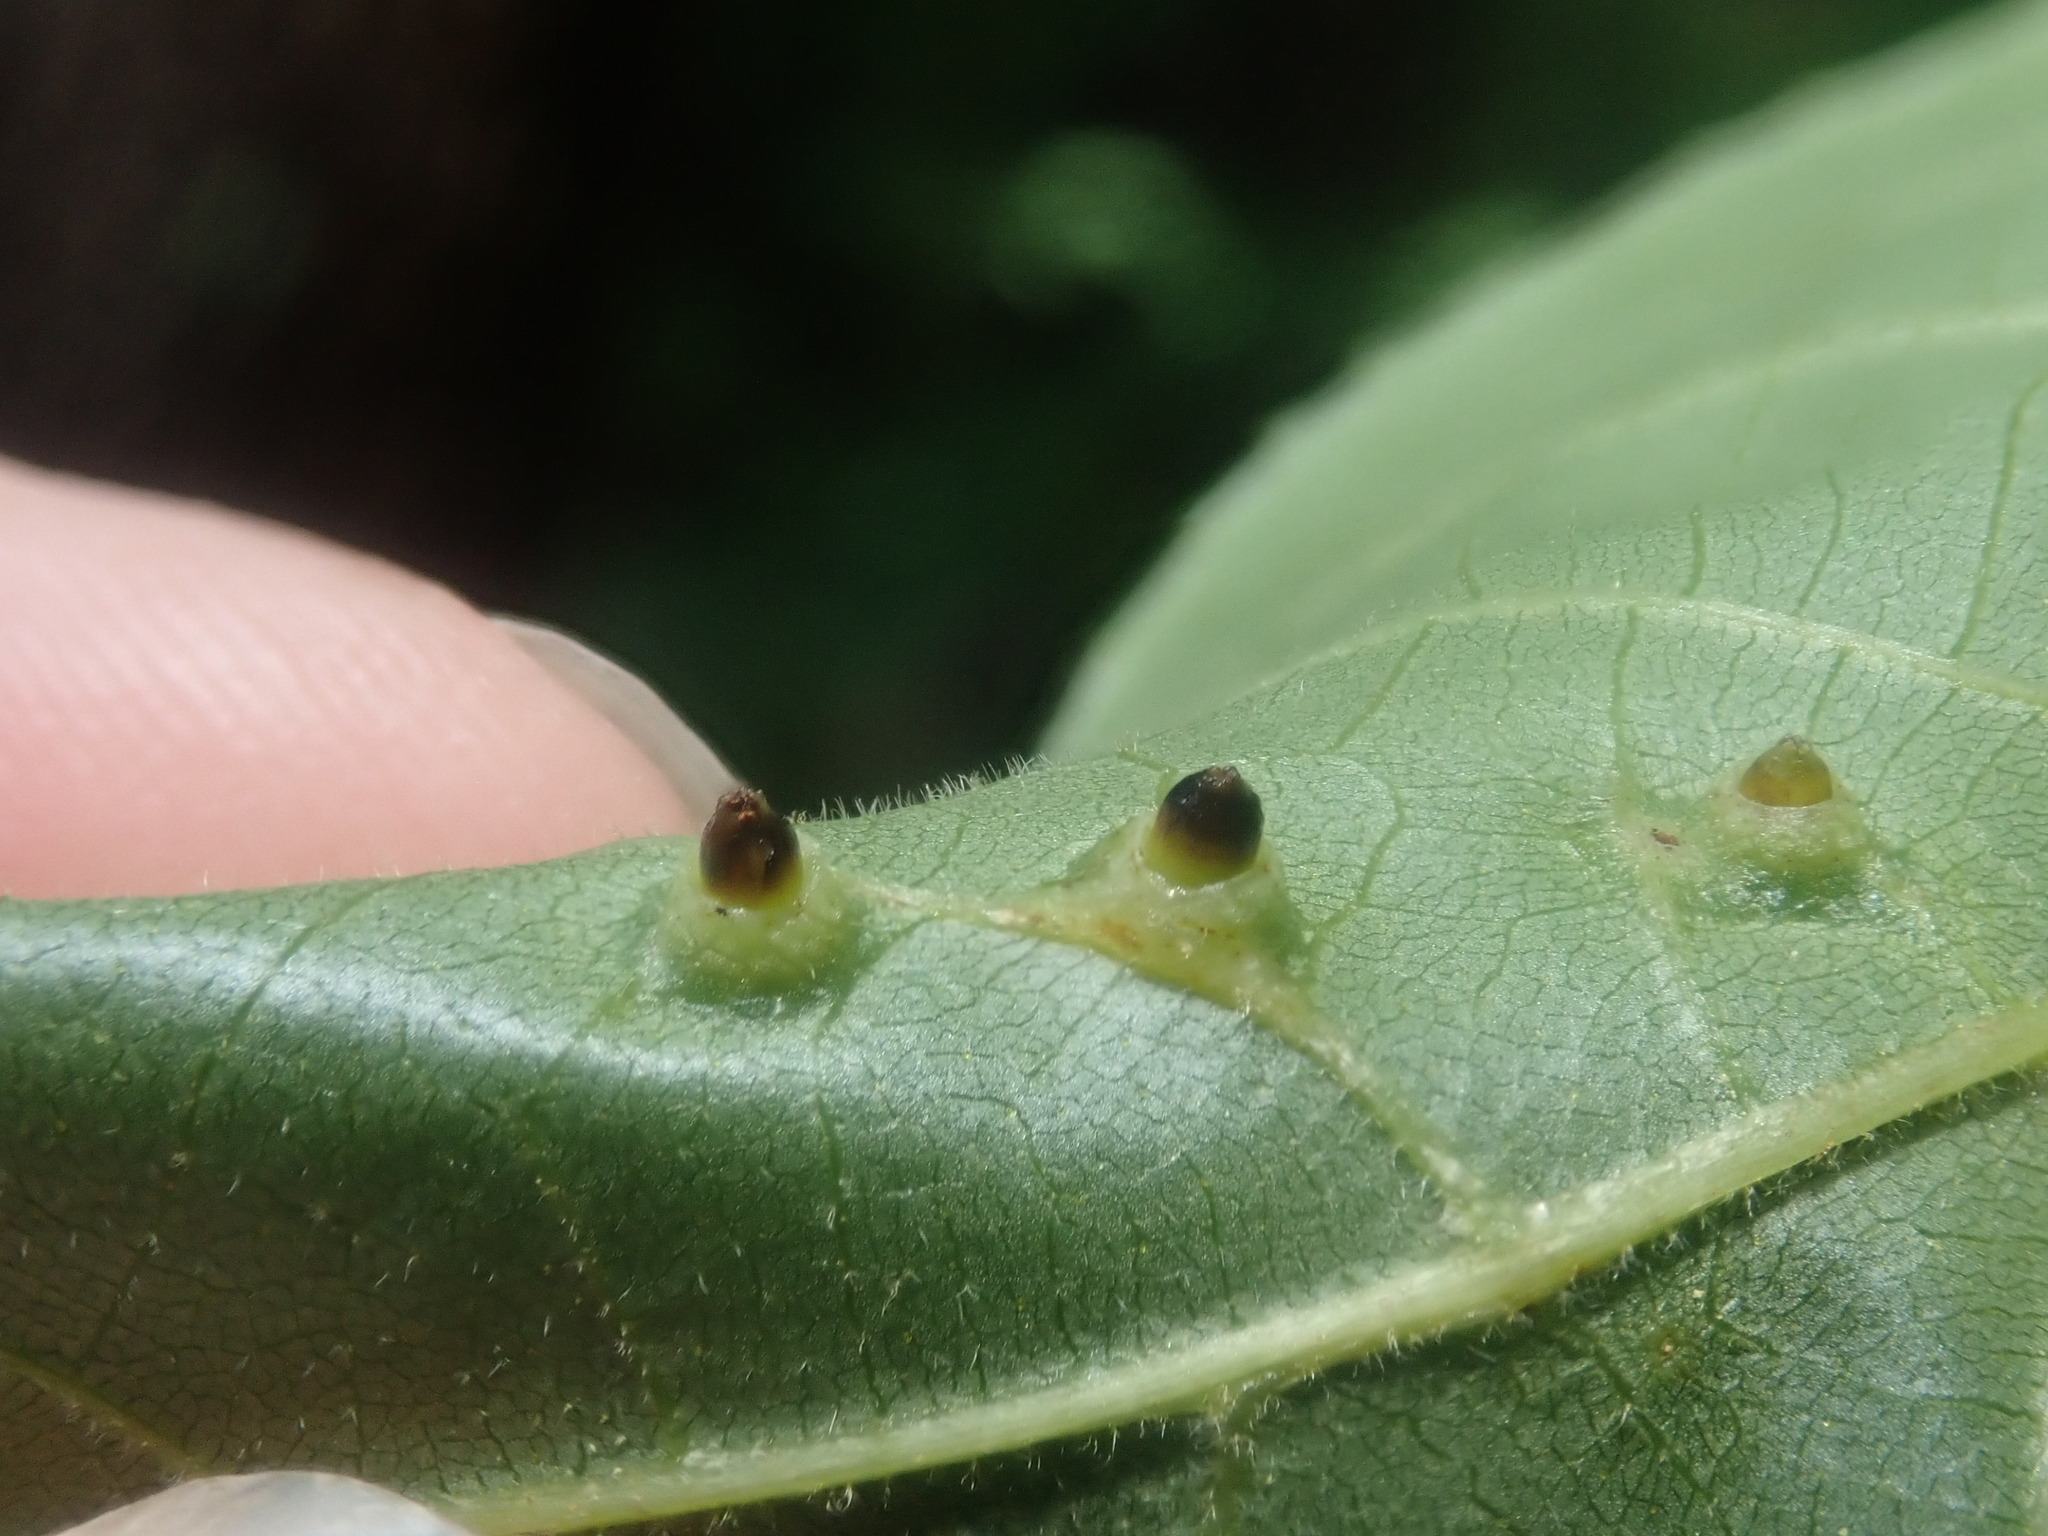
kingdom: Animalia
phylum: Arthropoda
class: Insecta
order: Diptera
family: Cecidomyiidae
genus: Caryomyia
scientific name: Caryomyia tubicola
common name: Hickory bullet gall midge
